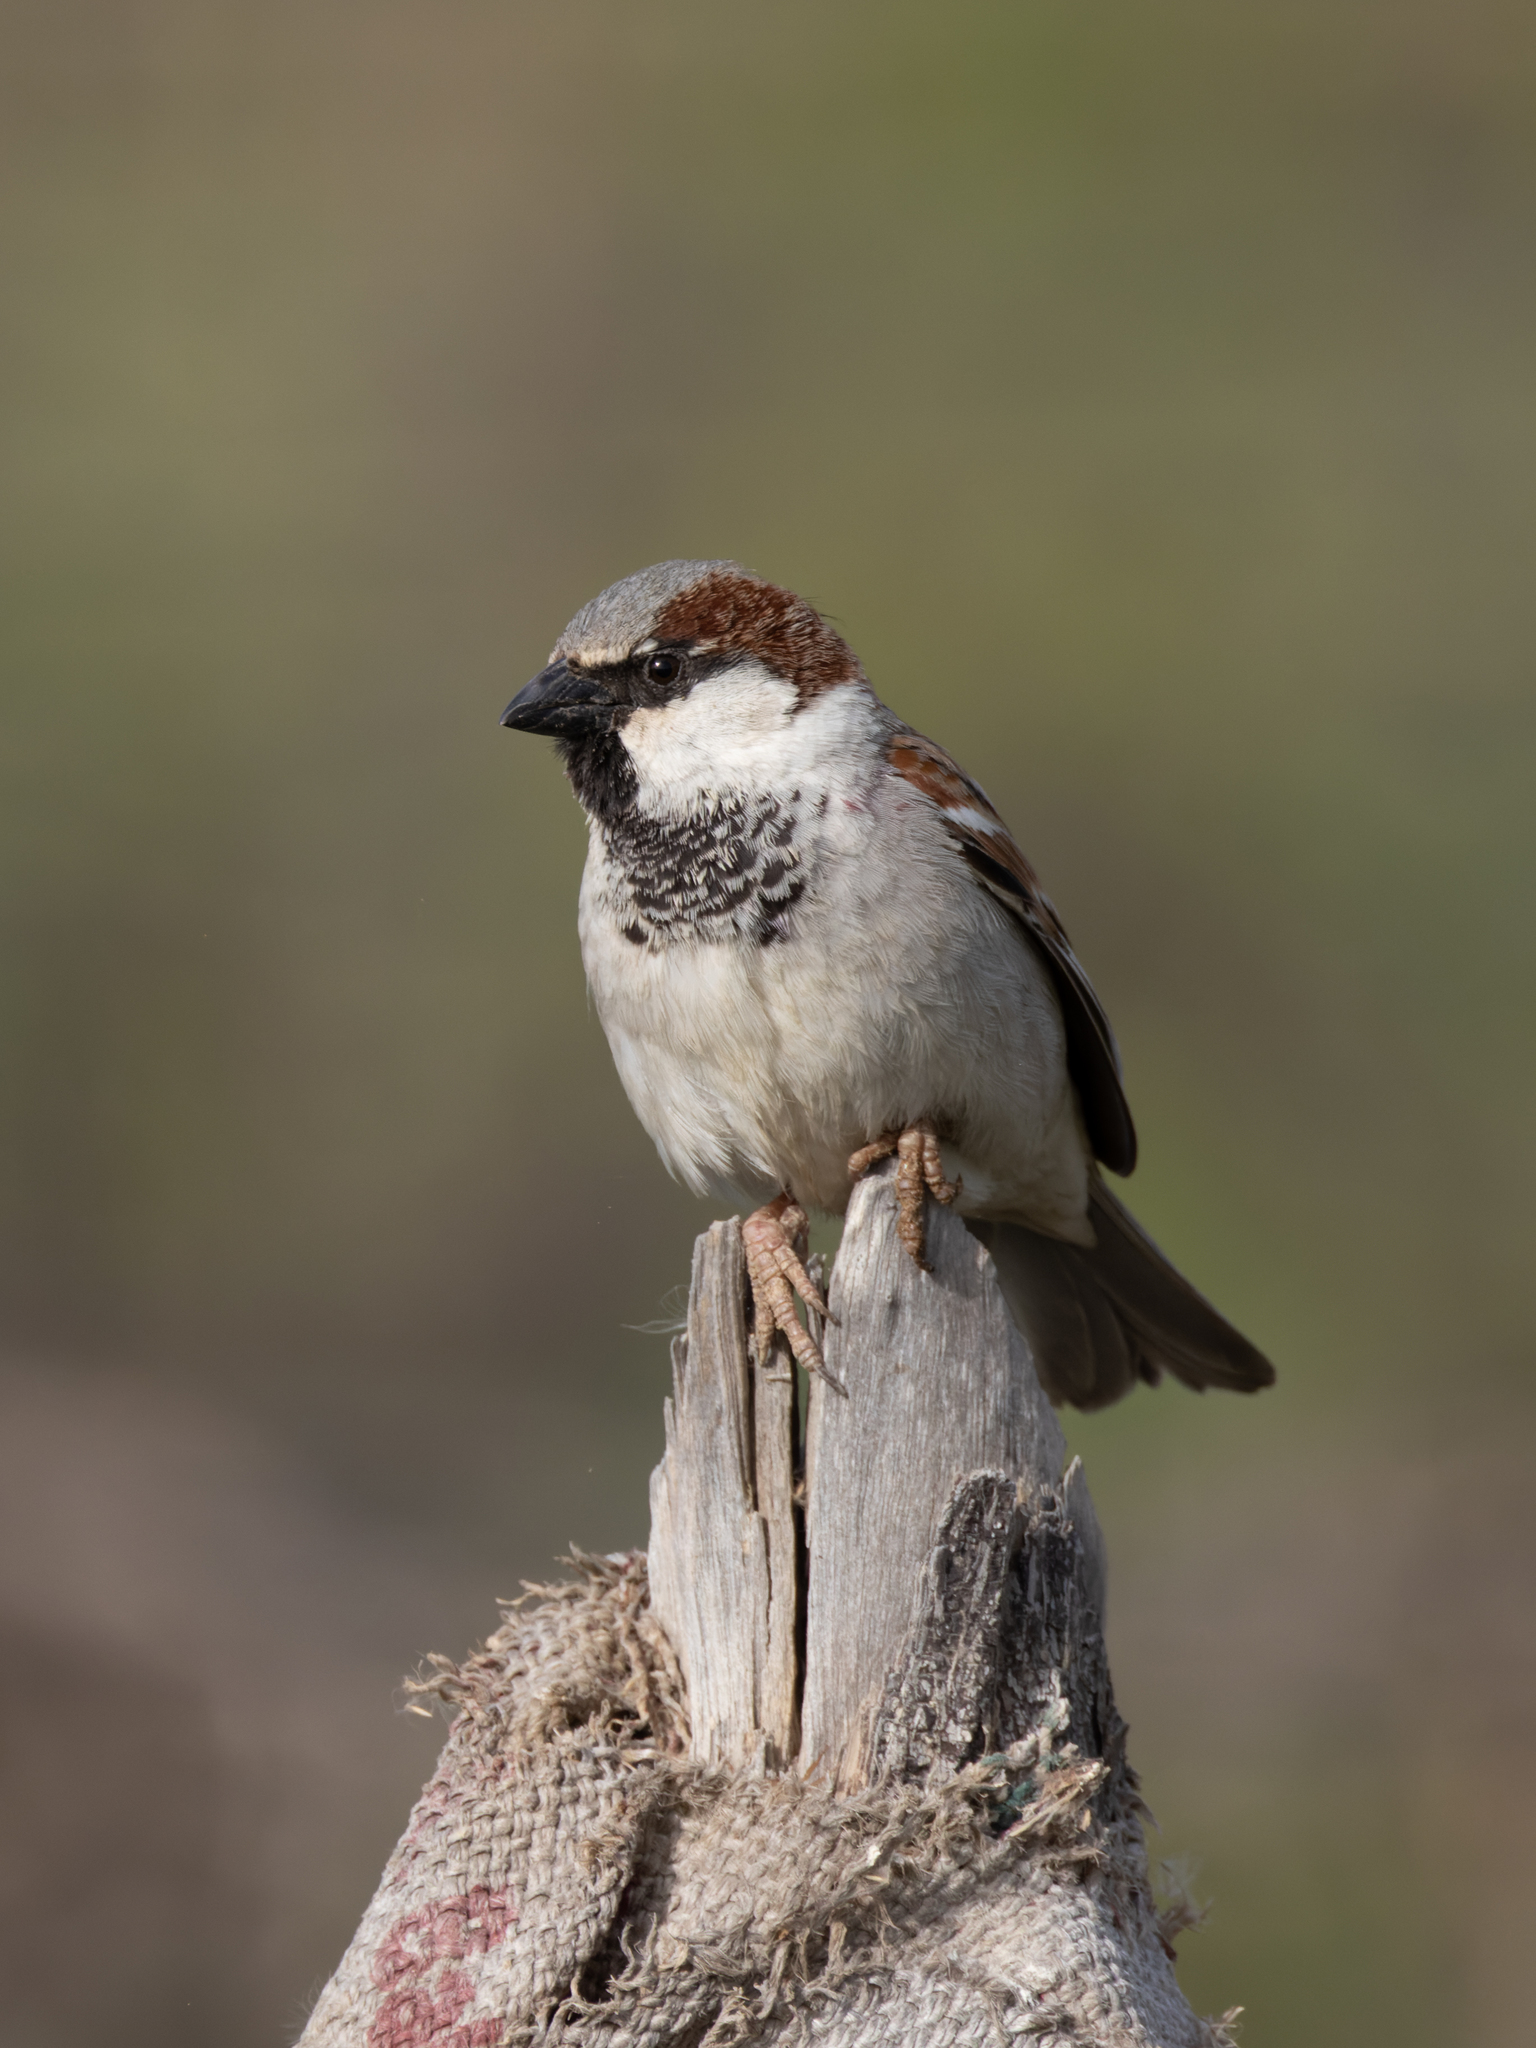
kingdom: Animalia
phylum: Chordata
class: Aves
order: Passeriformes
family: Passeridae
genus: Passer
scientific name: Passer domesticus
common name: House sparrow
